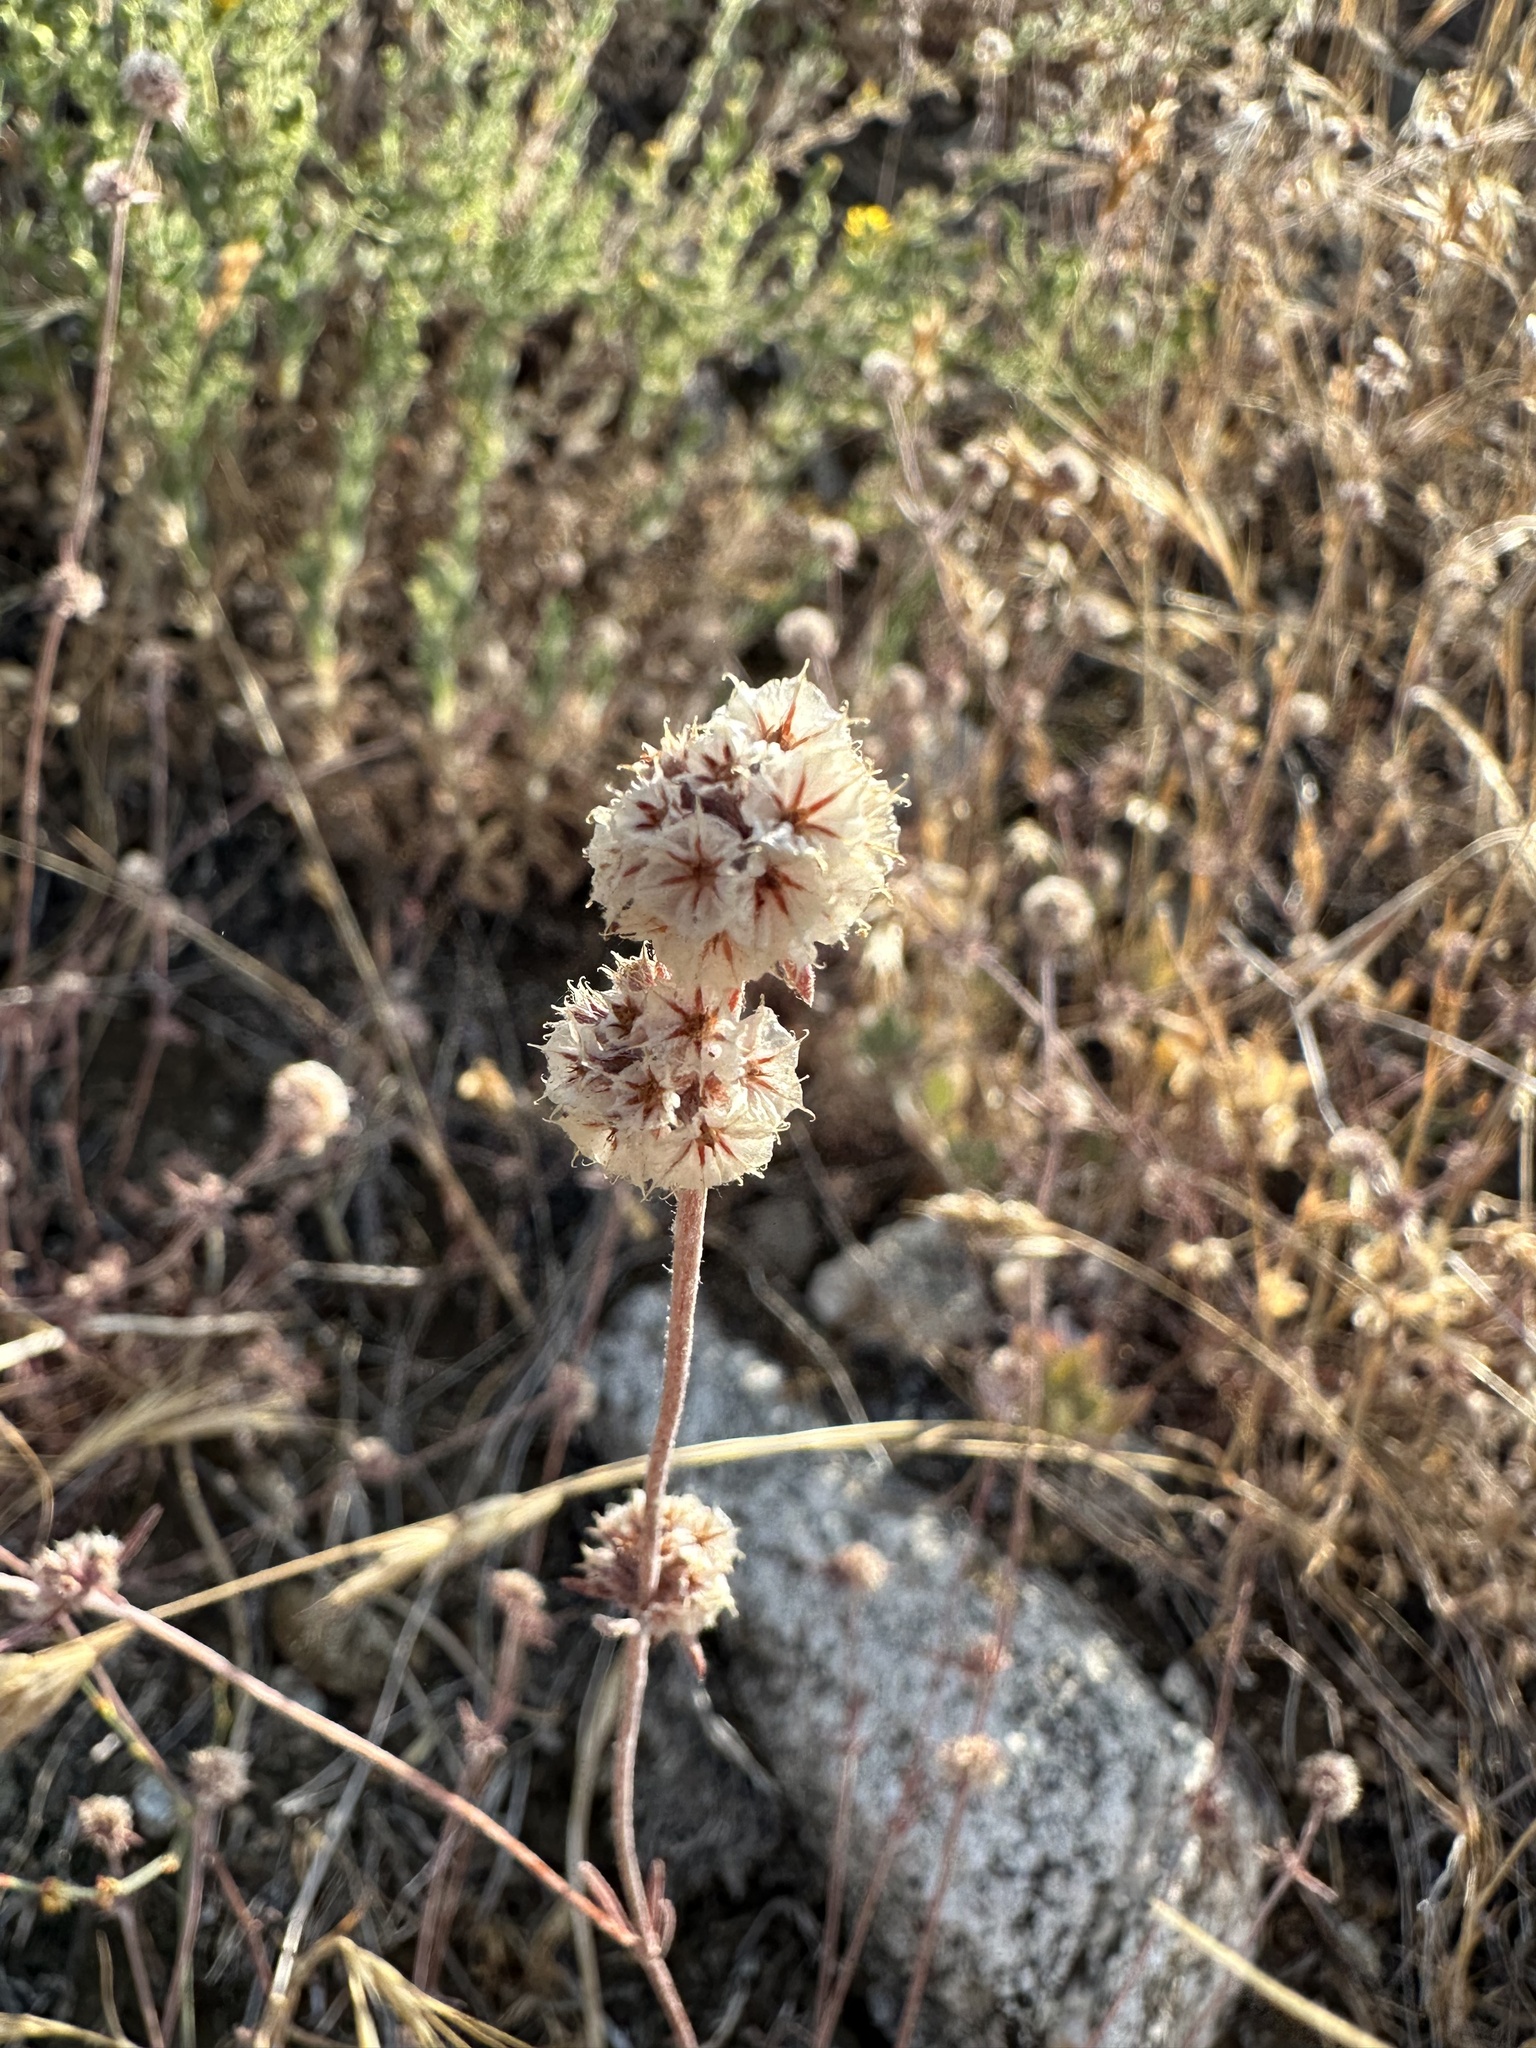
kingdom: Plantae
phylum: Tracheophyta
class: Magnoliopsida
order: Caryophyllales
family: Polygonaceae
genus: Chorizanthe
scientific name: Chorizanthe membranacea
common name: Pink spineflower
